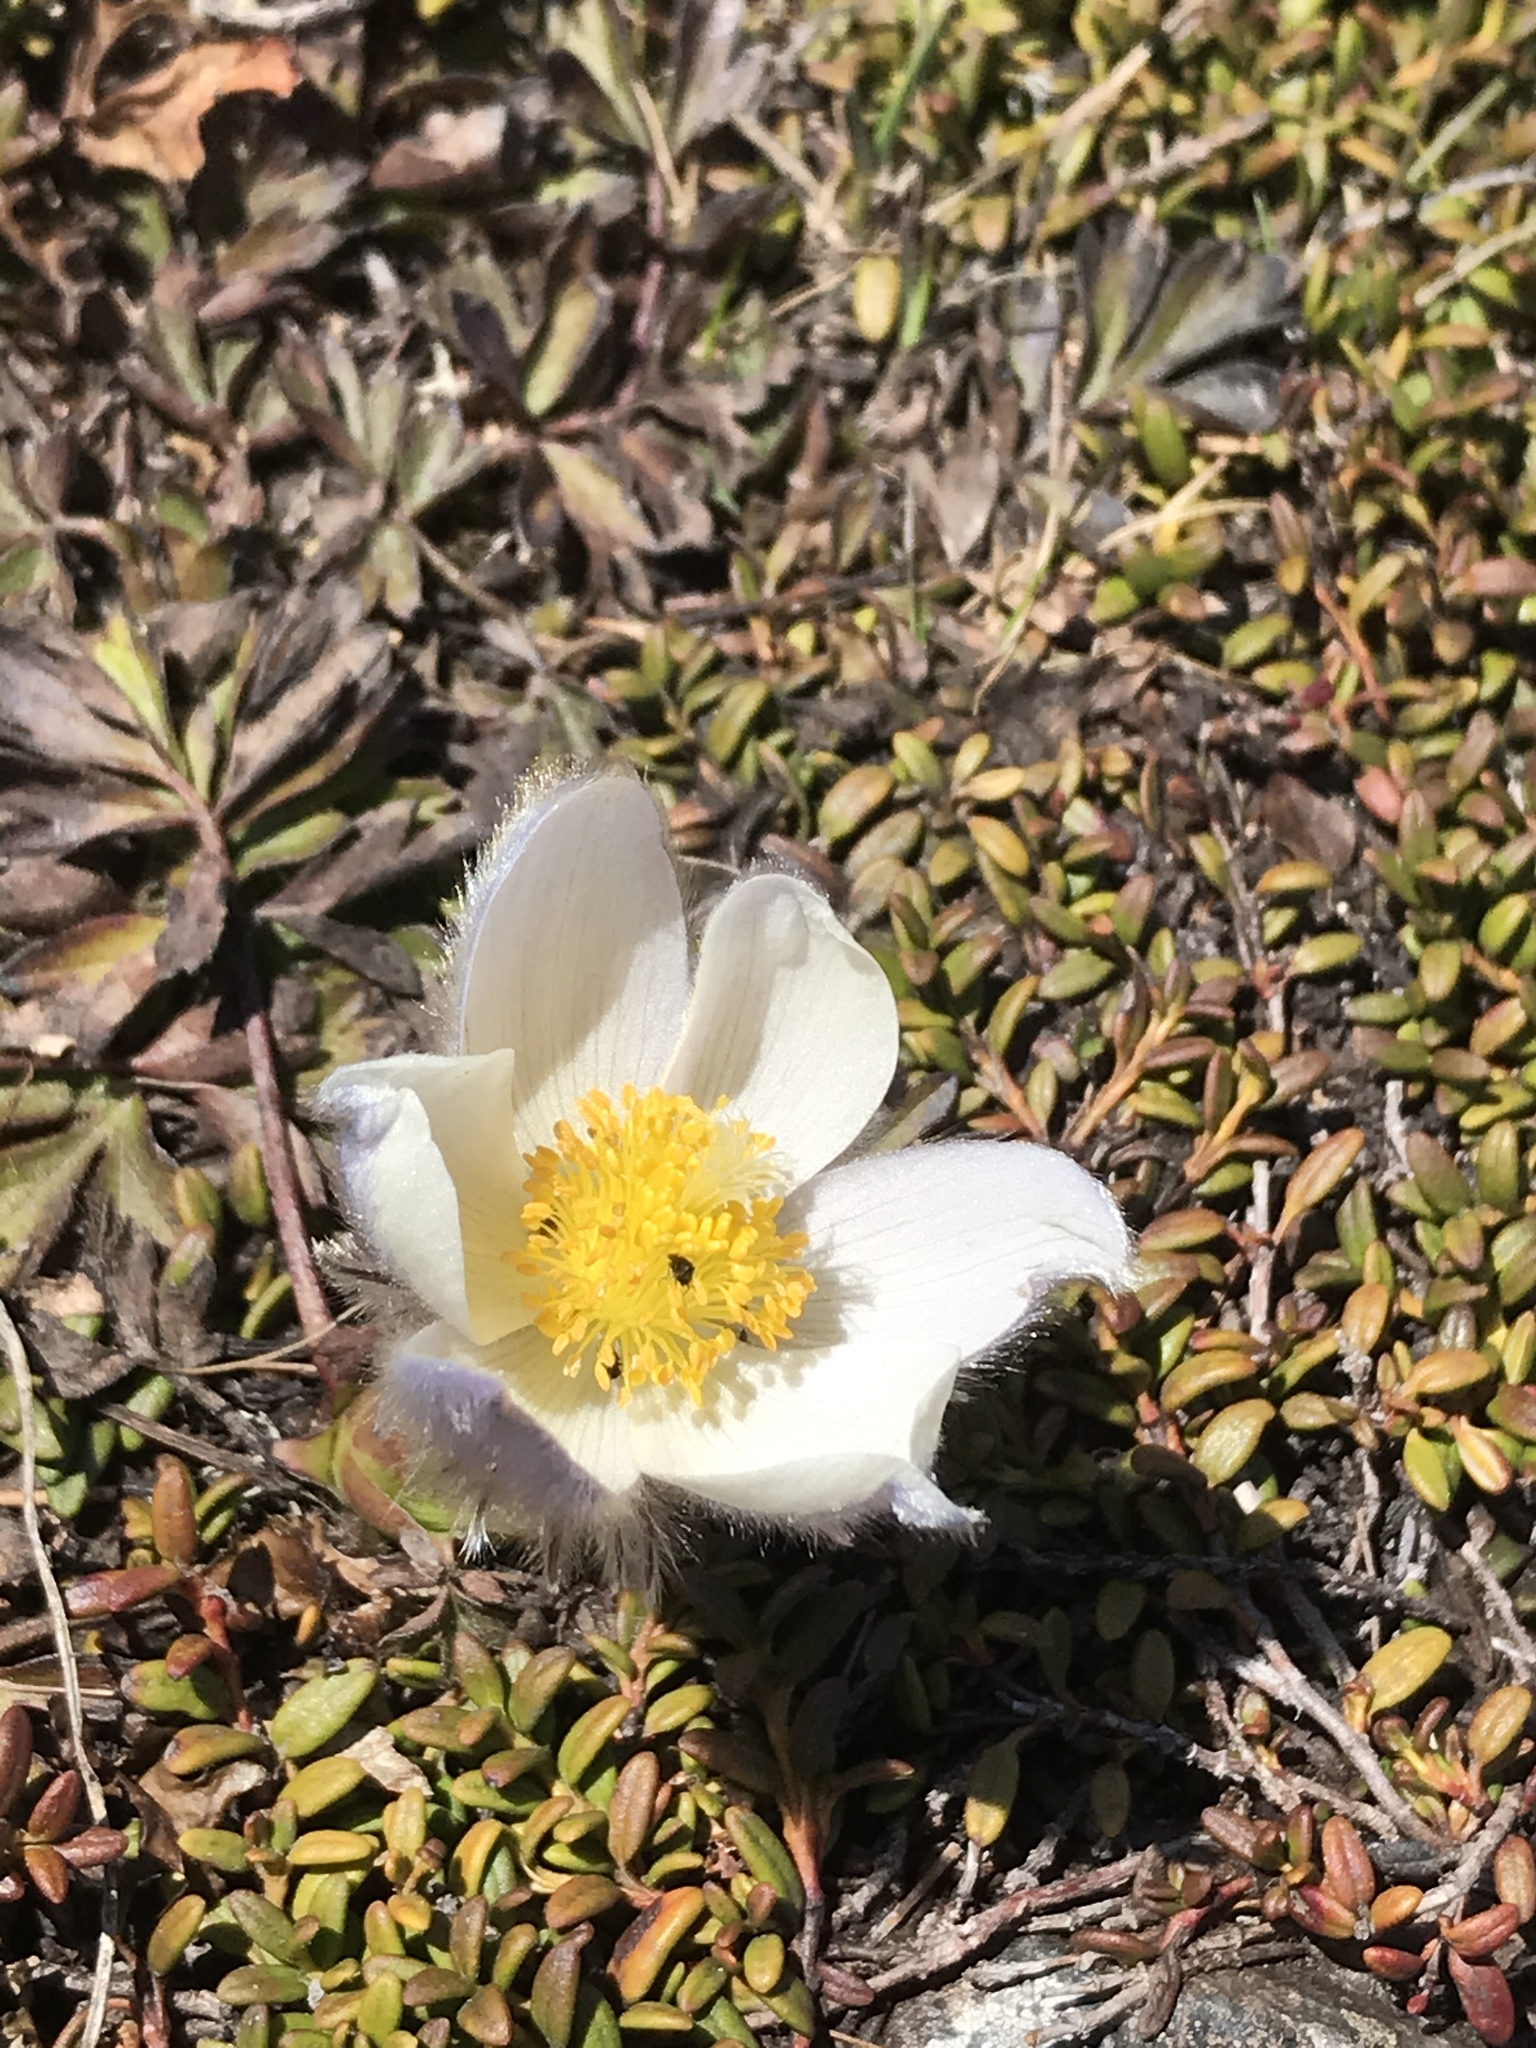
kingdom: Plantae
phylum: Tracheophyta
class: Magnoliopsida
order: Ranunculales
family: Ranunculaceae
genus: Pulsatilla
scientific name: Pulsatilla vernalis
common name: Spring pasque flower
